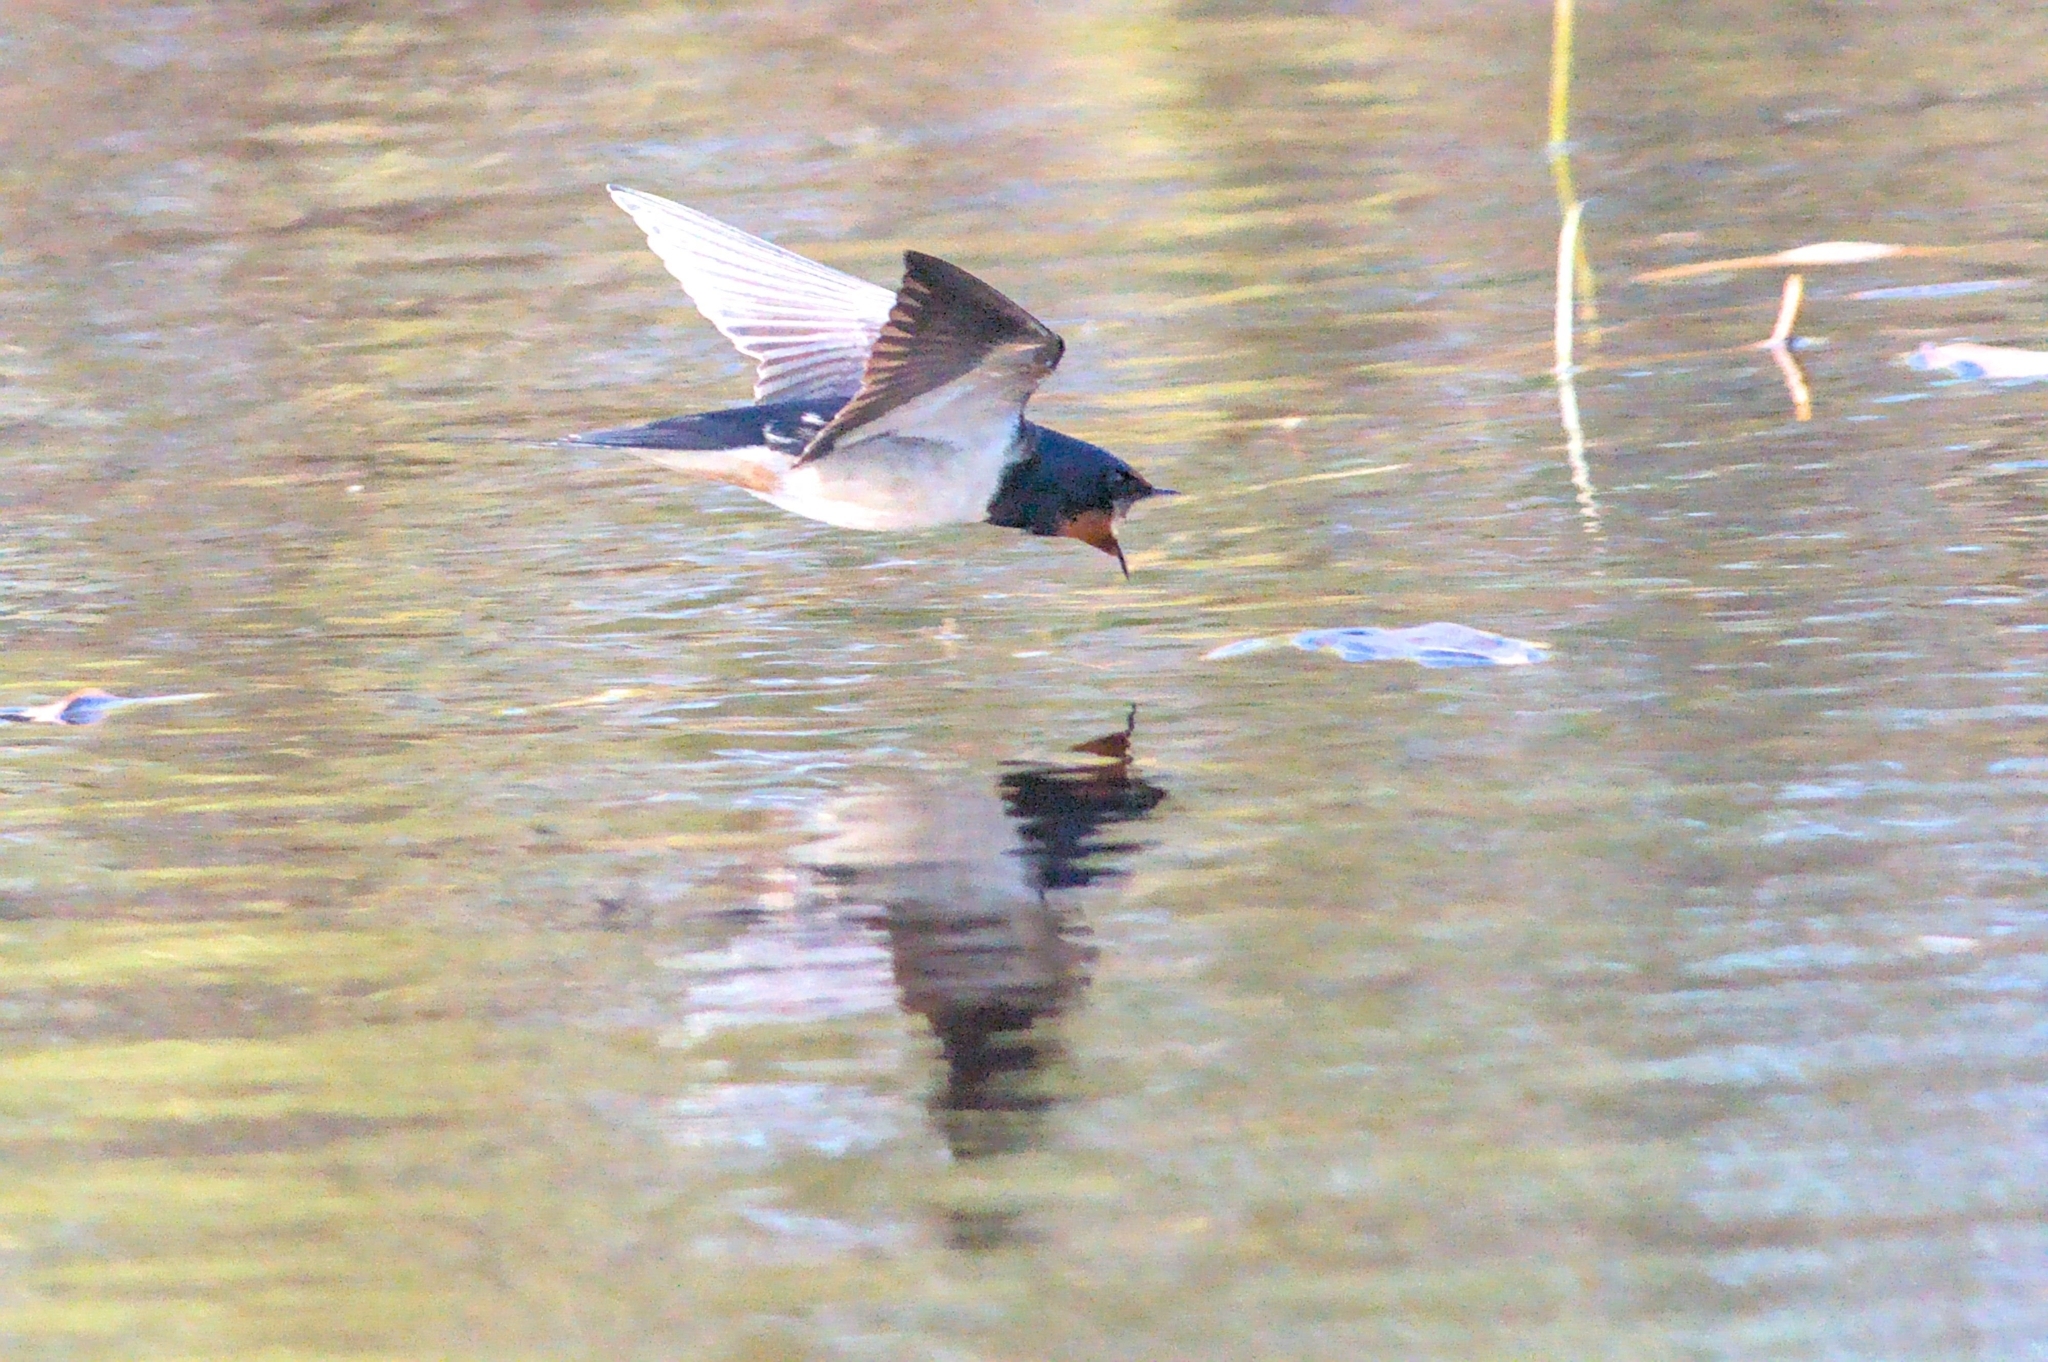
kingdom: Animalia
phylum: Chordata
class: Aves
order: Passeriformes
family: Hirundinidae
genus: Hirundo
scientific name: Hirundo rustica
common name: Barn swallow
